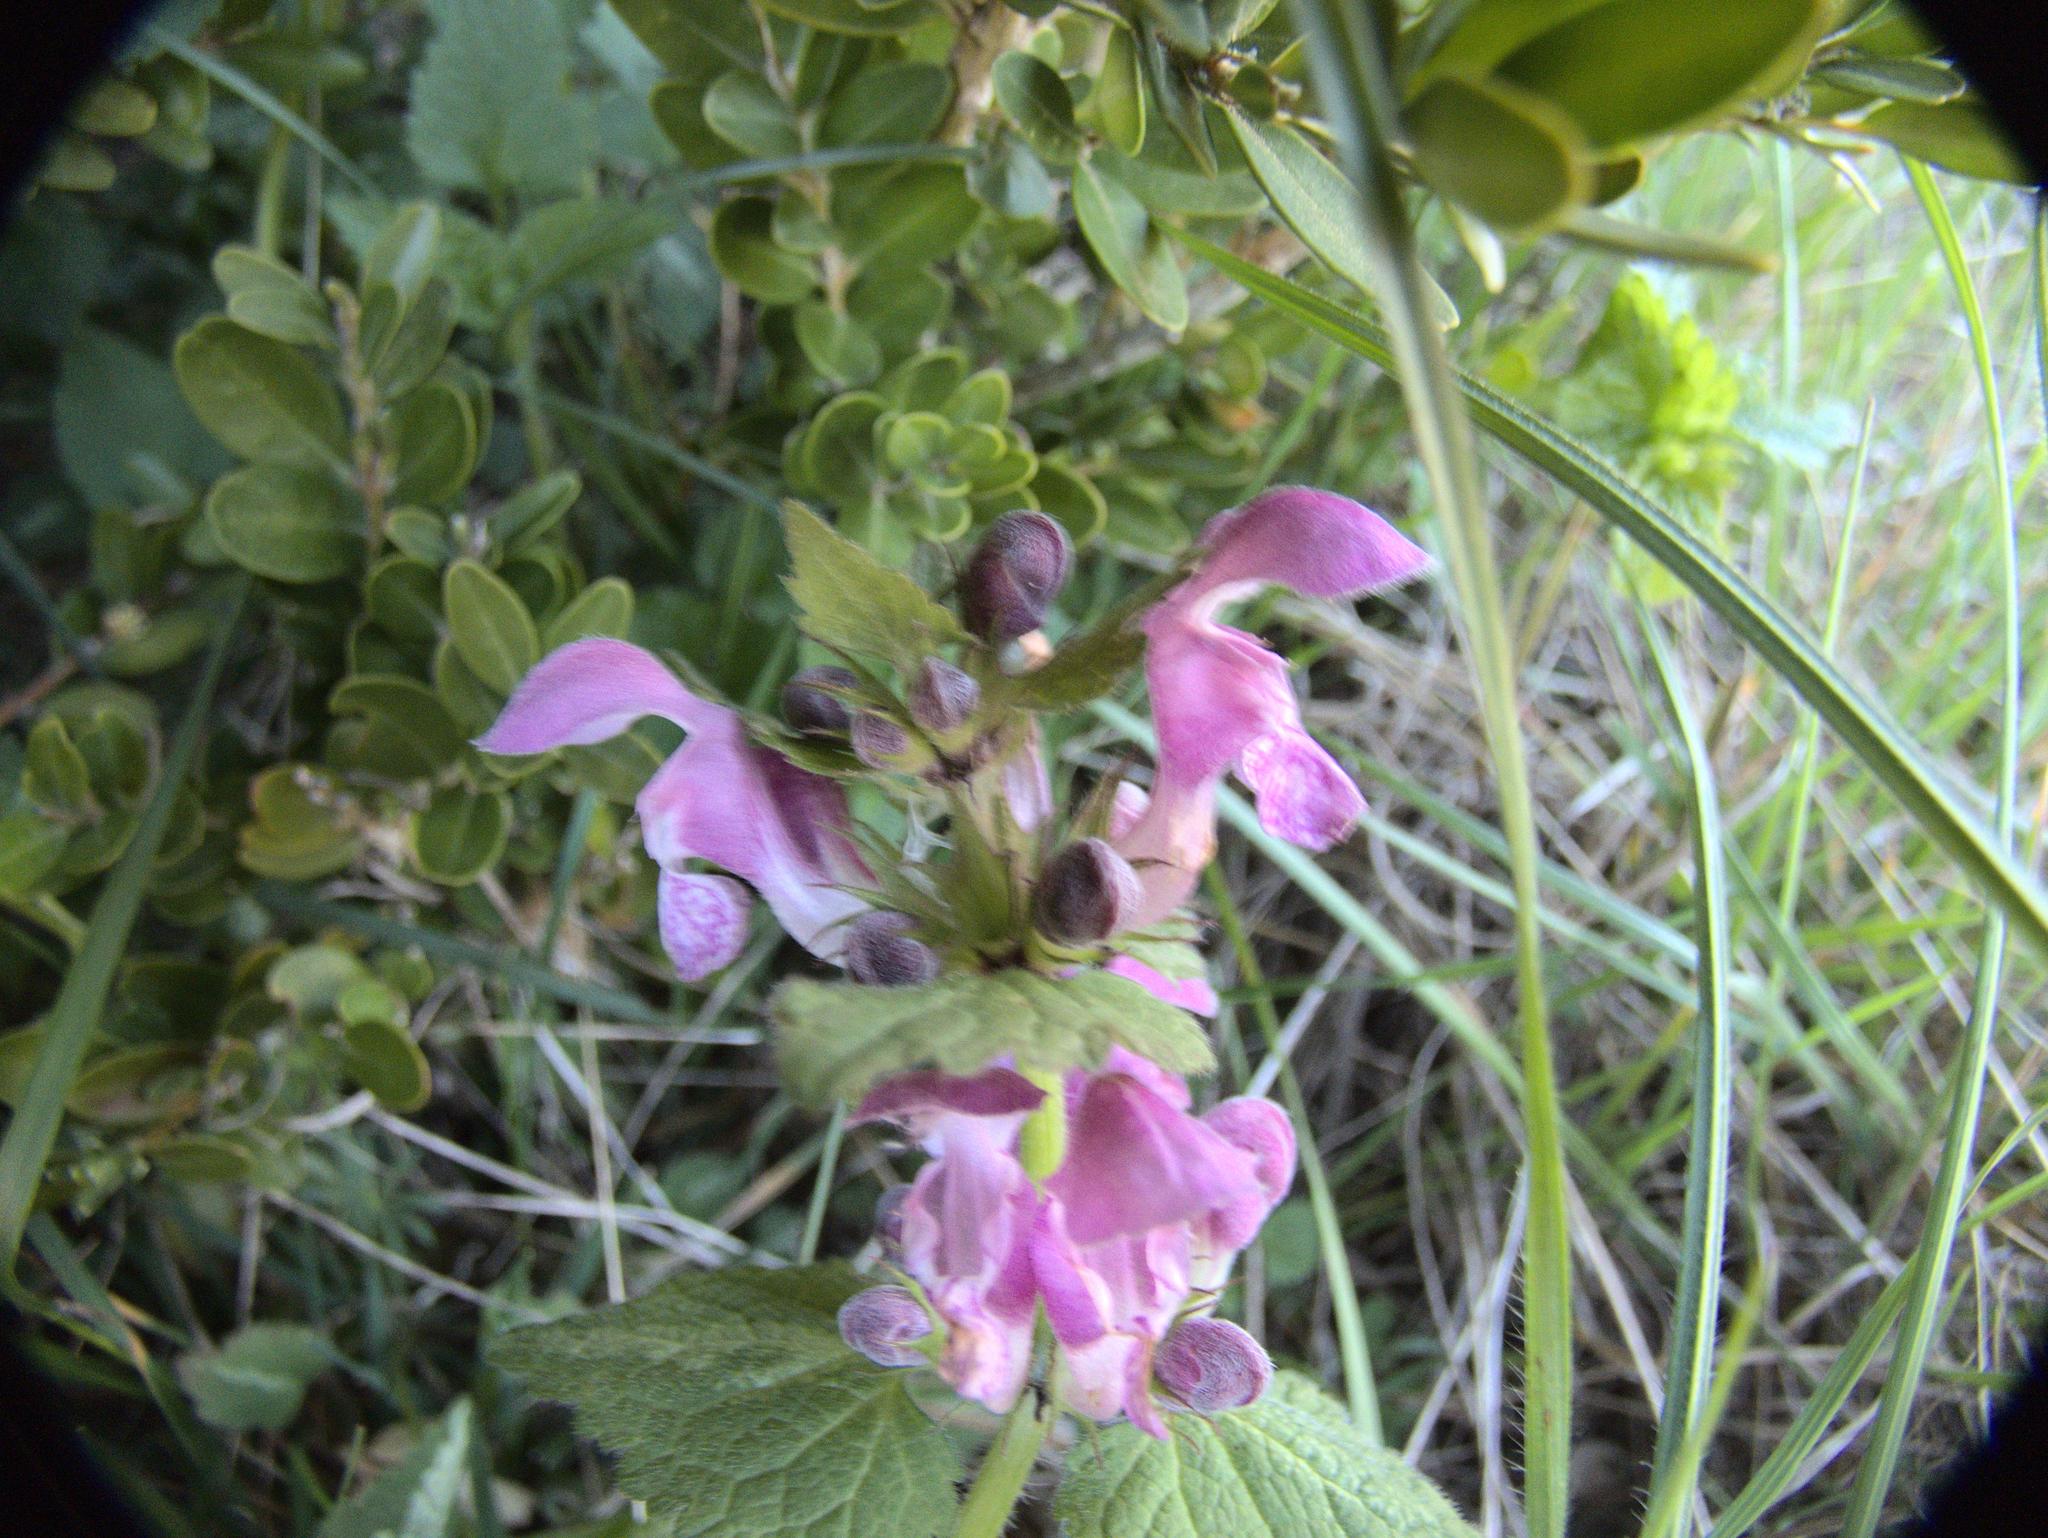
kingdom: Plantae
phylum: Tracheophyta
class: Magnoliopsida
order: Lamiales
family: Lamiaceae
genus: Lamium
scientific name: Lamium maculatum
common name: Spotted dead-nettle
